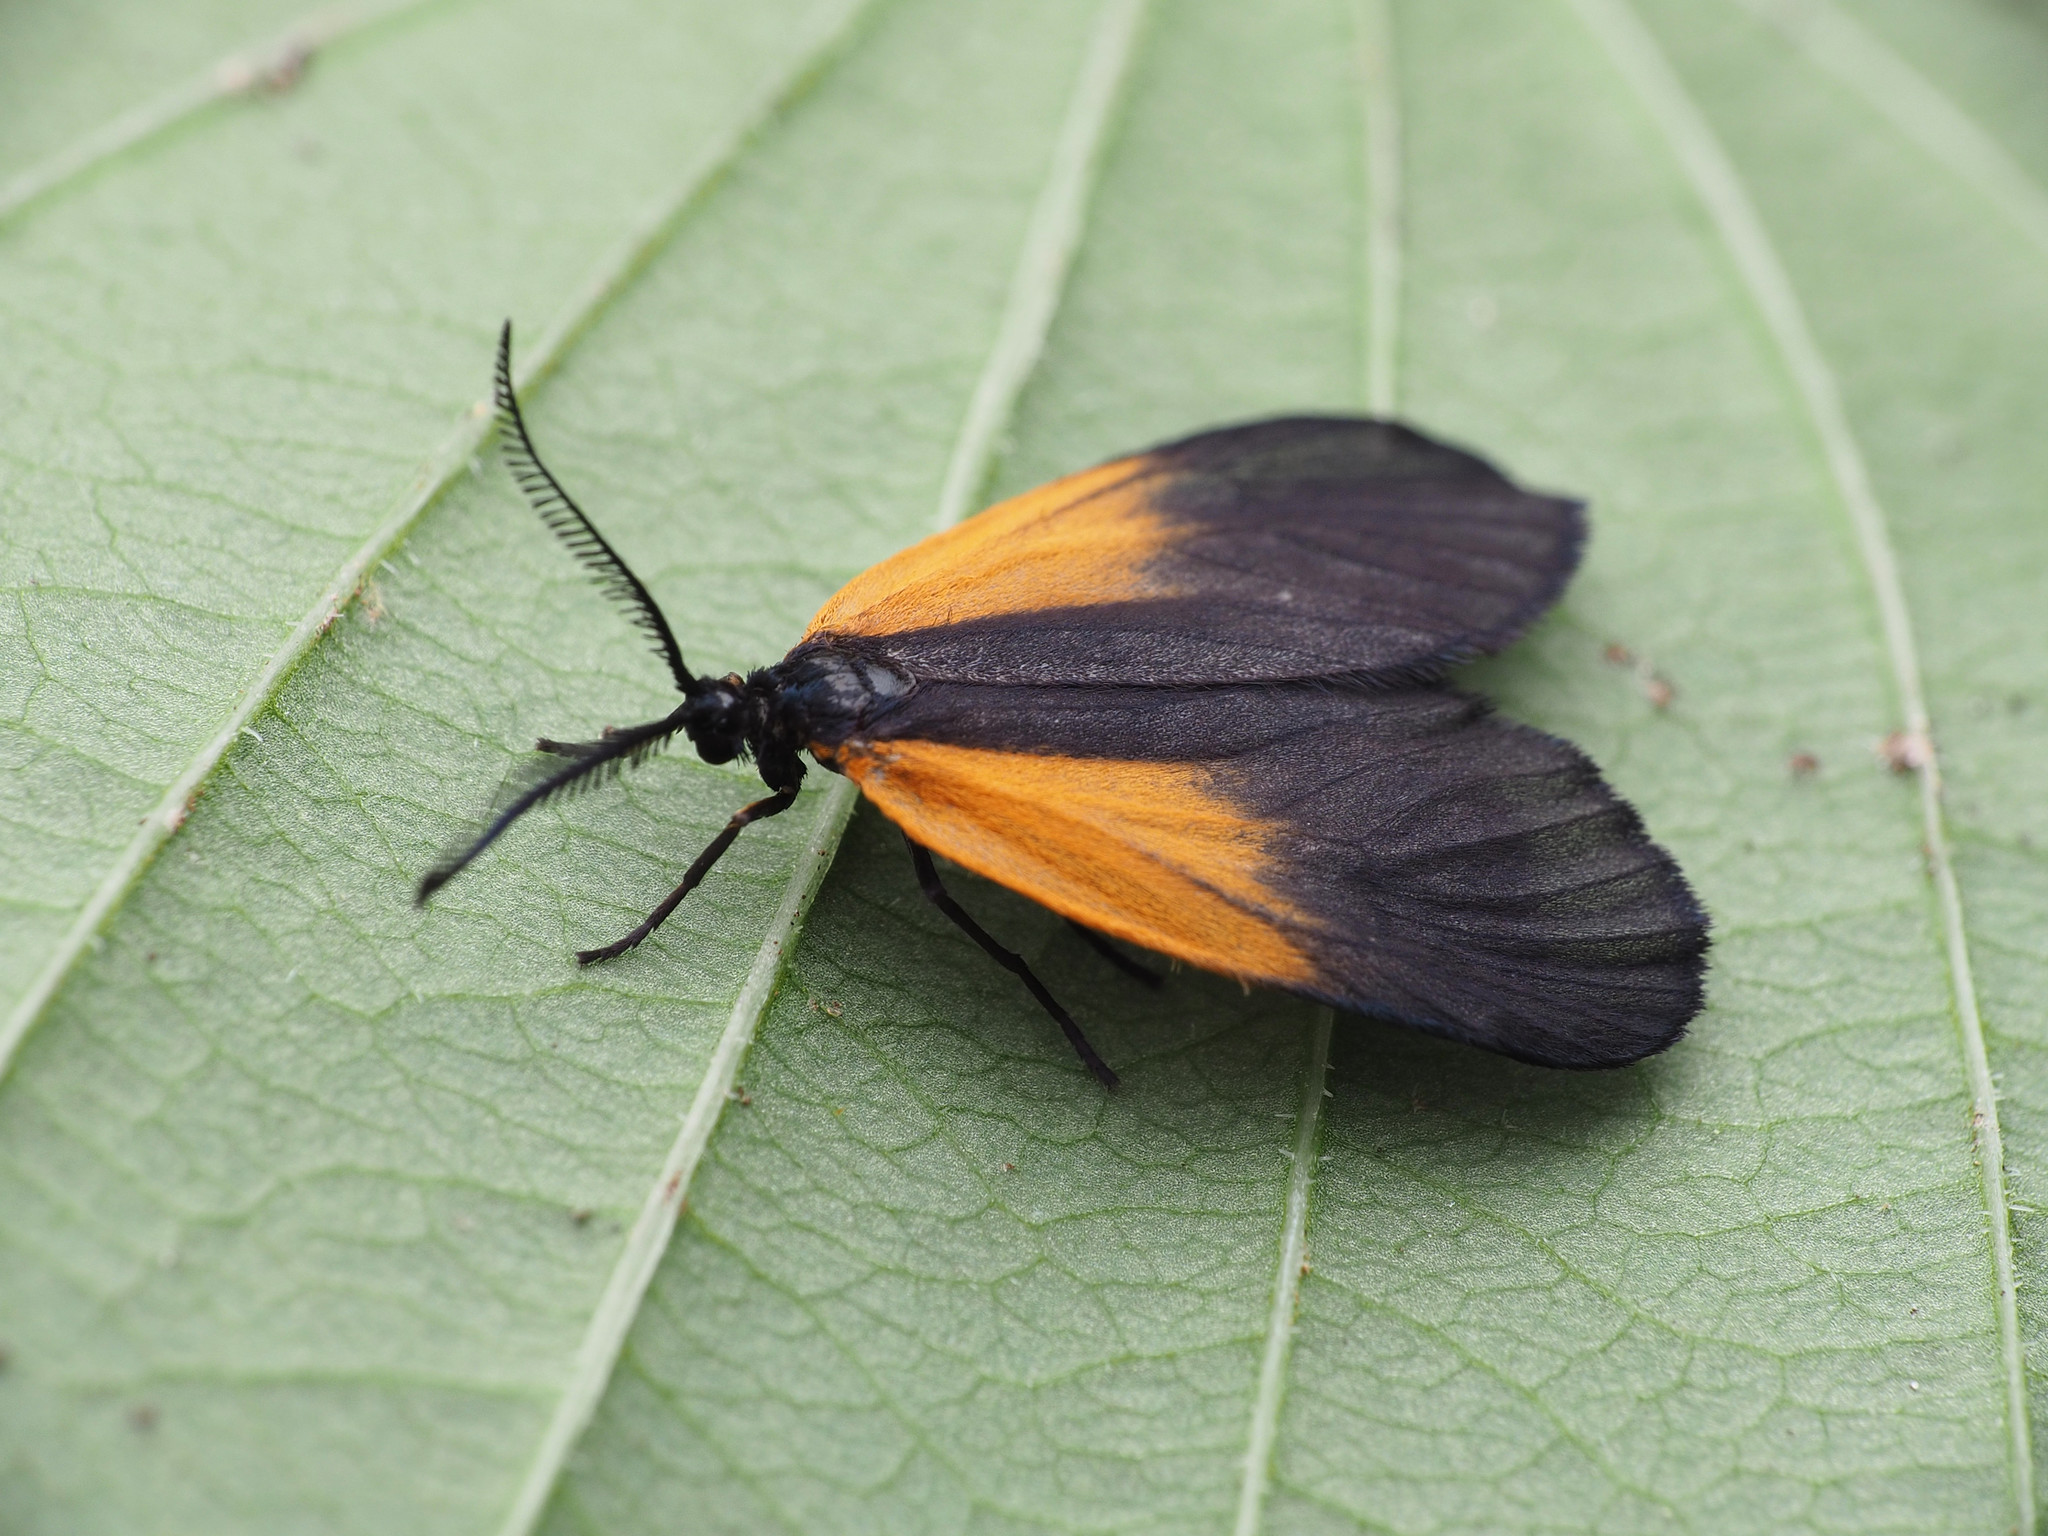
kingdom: Animalia
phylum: Arthropoda
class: Insecta
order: Lepidoptera
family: Zygaenidae
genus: Malthaca
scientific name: Malthaca dimidiata
